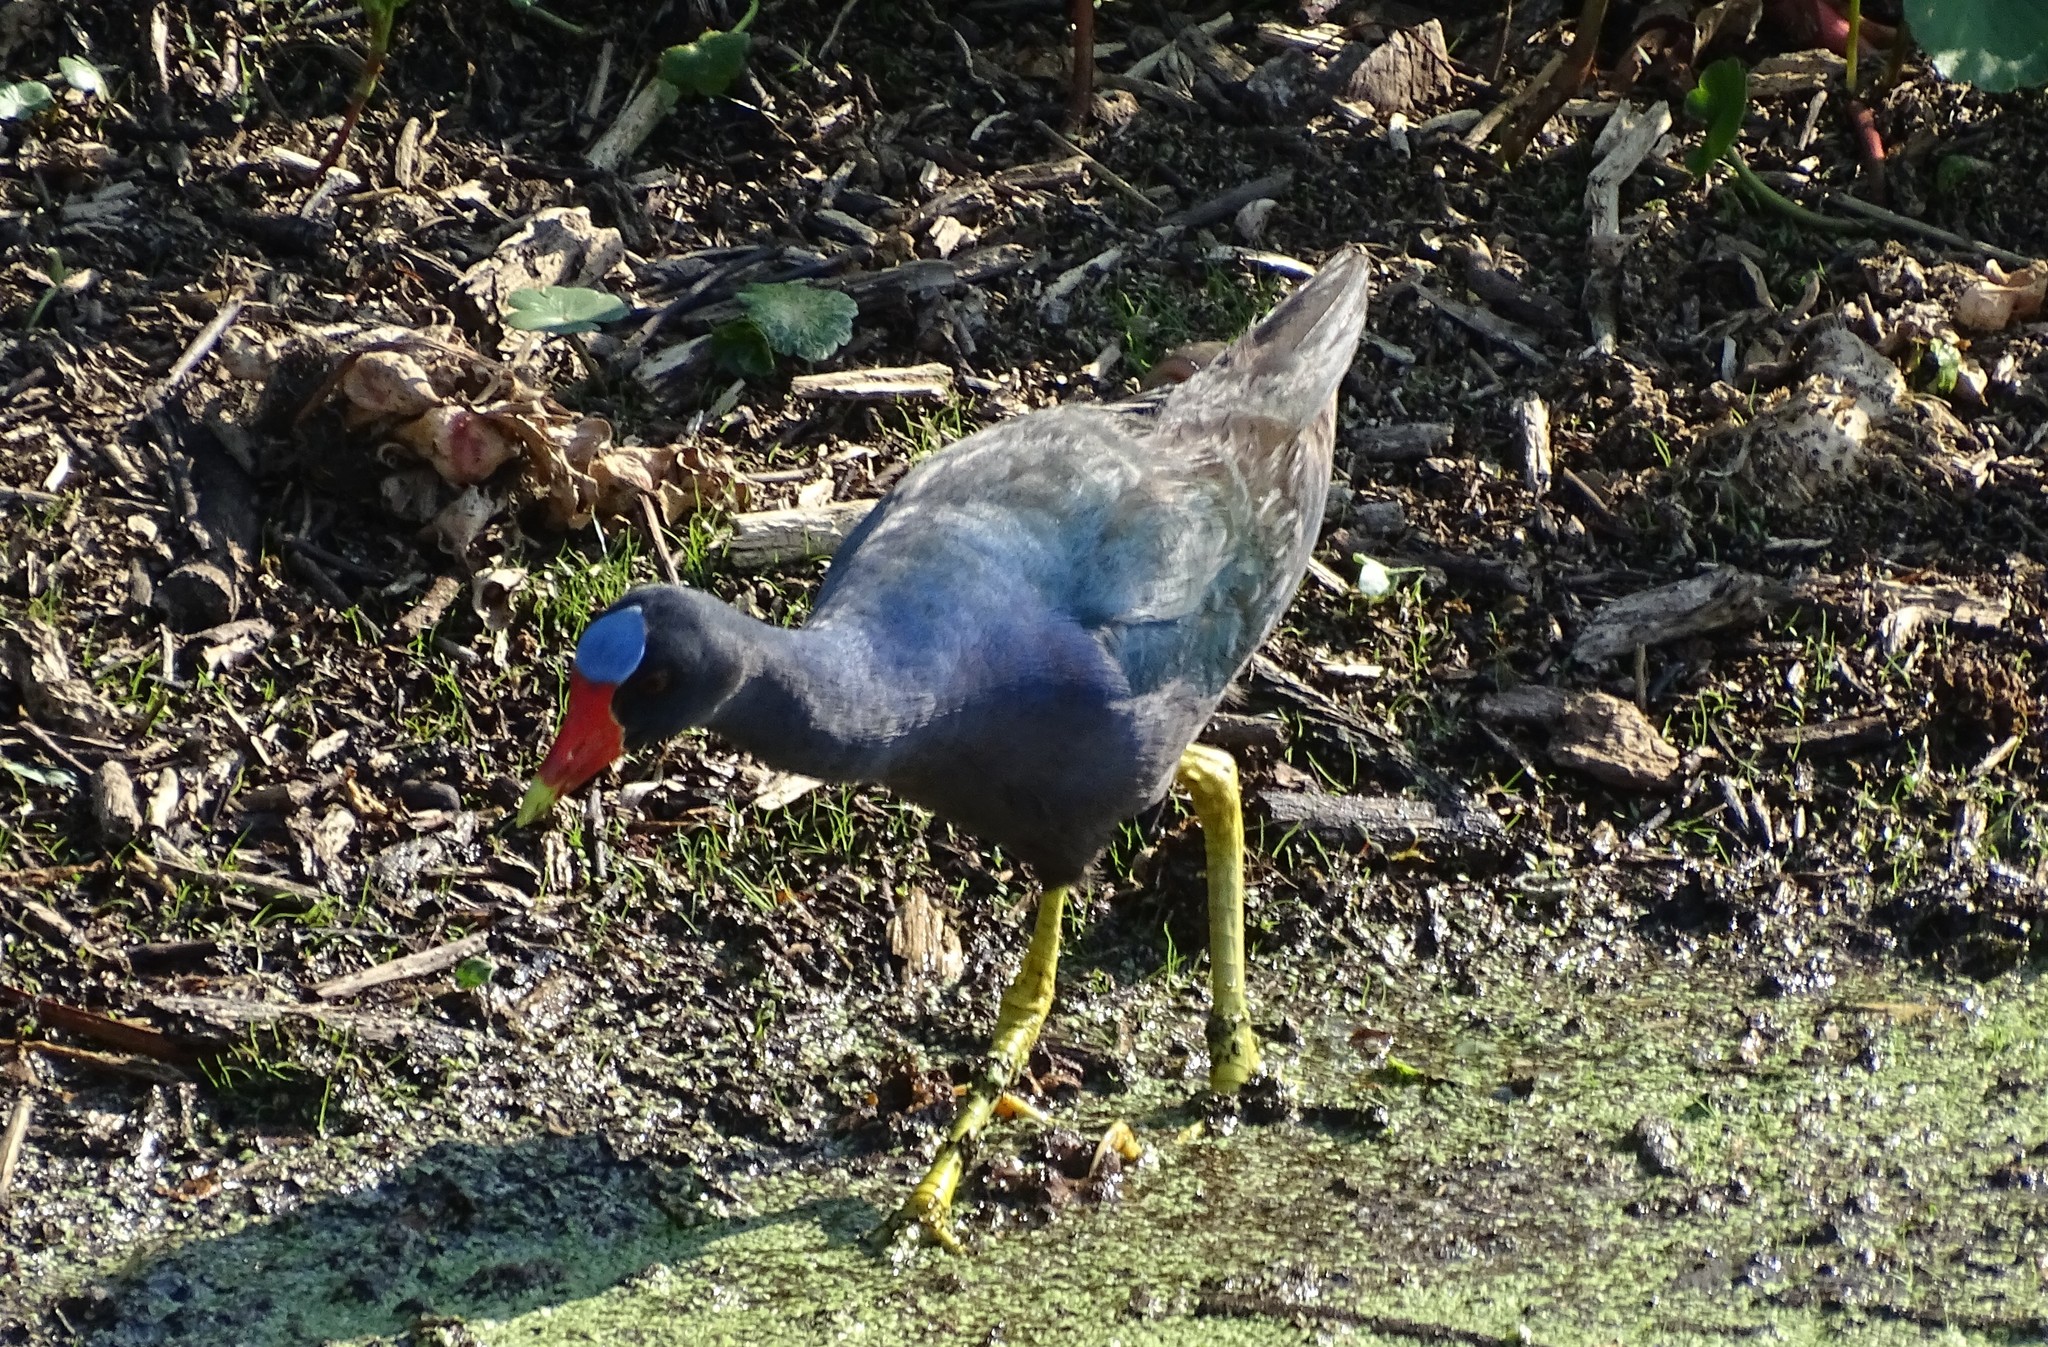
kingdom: Animalia
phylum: Chordata
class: Aves
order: Gruiformes
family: Rallidae
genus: Porphyrio
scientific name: Porphyrio martinica
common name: Purple gallinule
